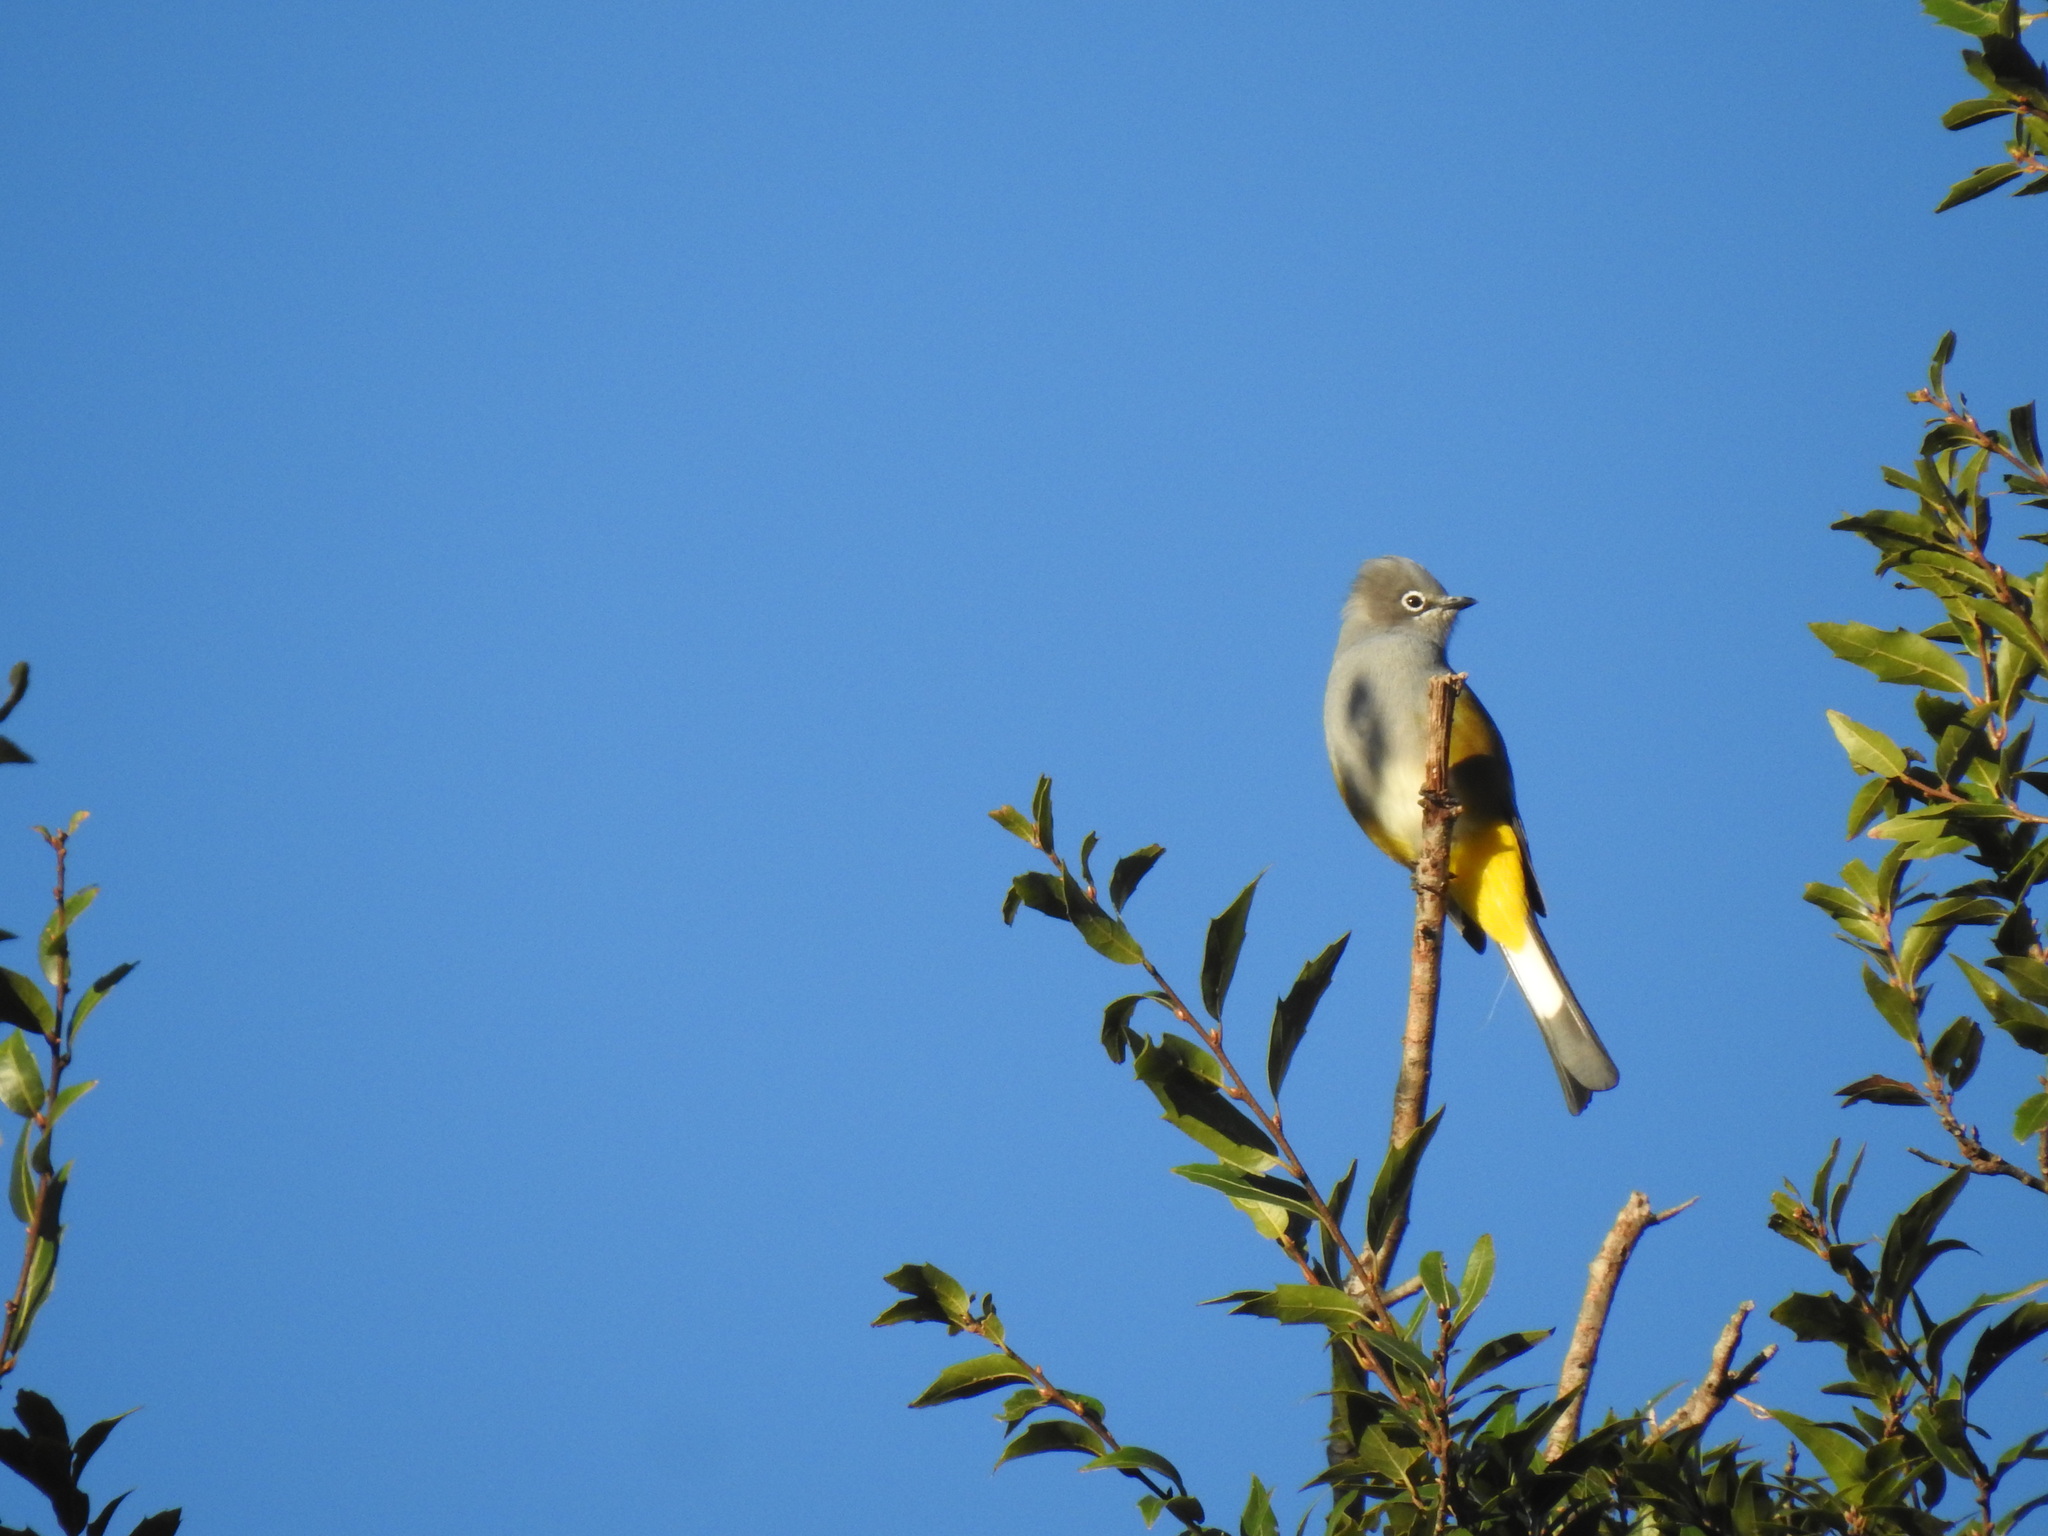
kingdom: Animalia
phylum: Chordata
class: Aves
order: Passeriformes
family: Ptilogonatidae
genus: Ptilogonys
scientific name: Ptilogonys cinereus
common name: Gray silky-flycatcher
